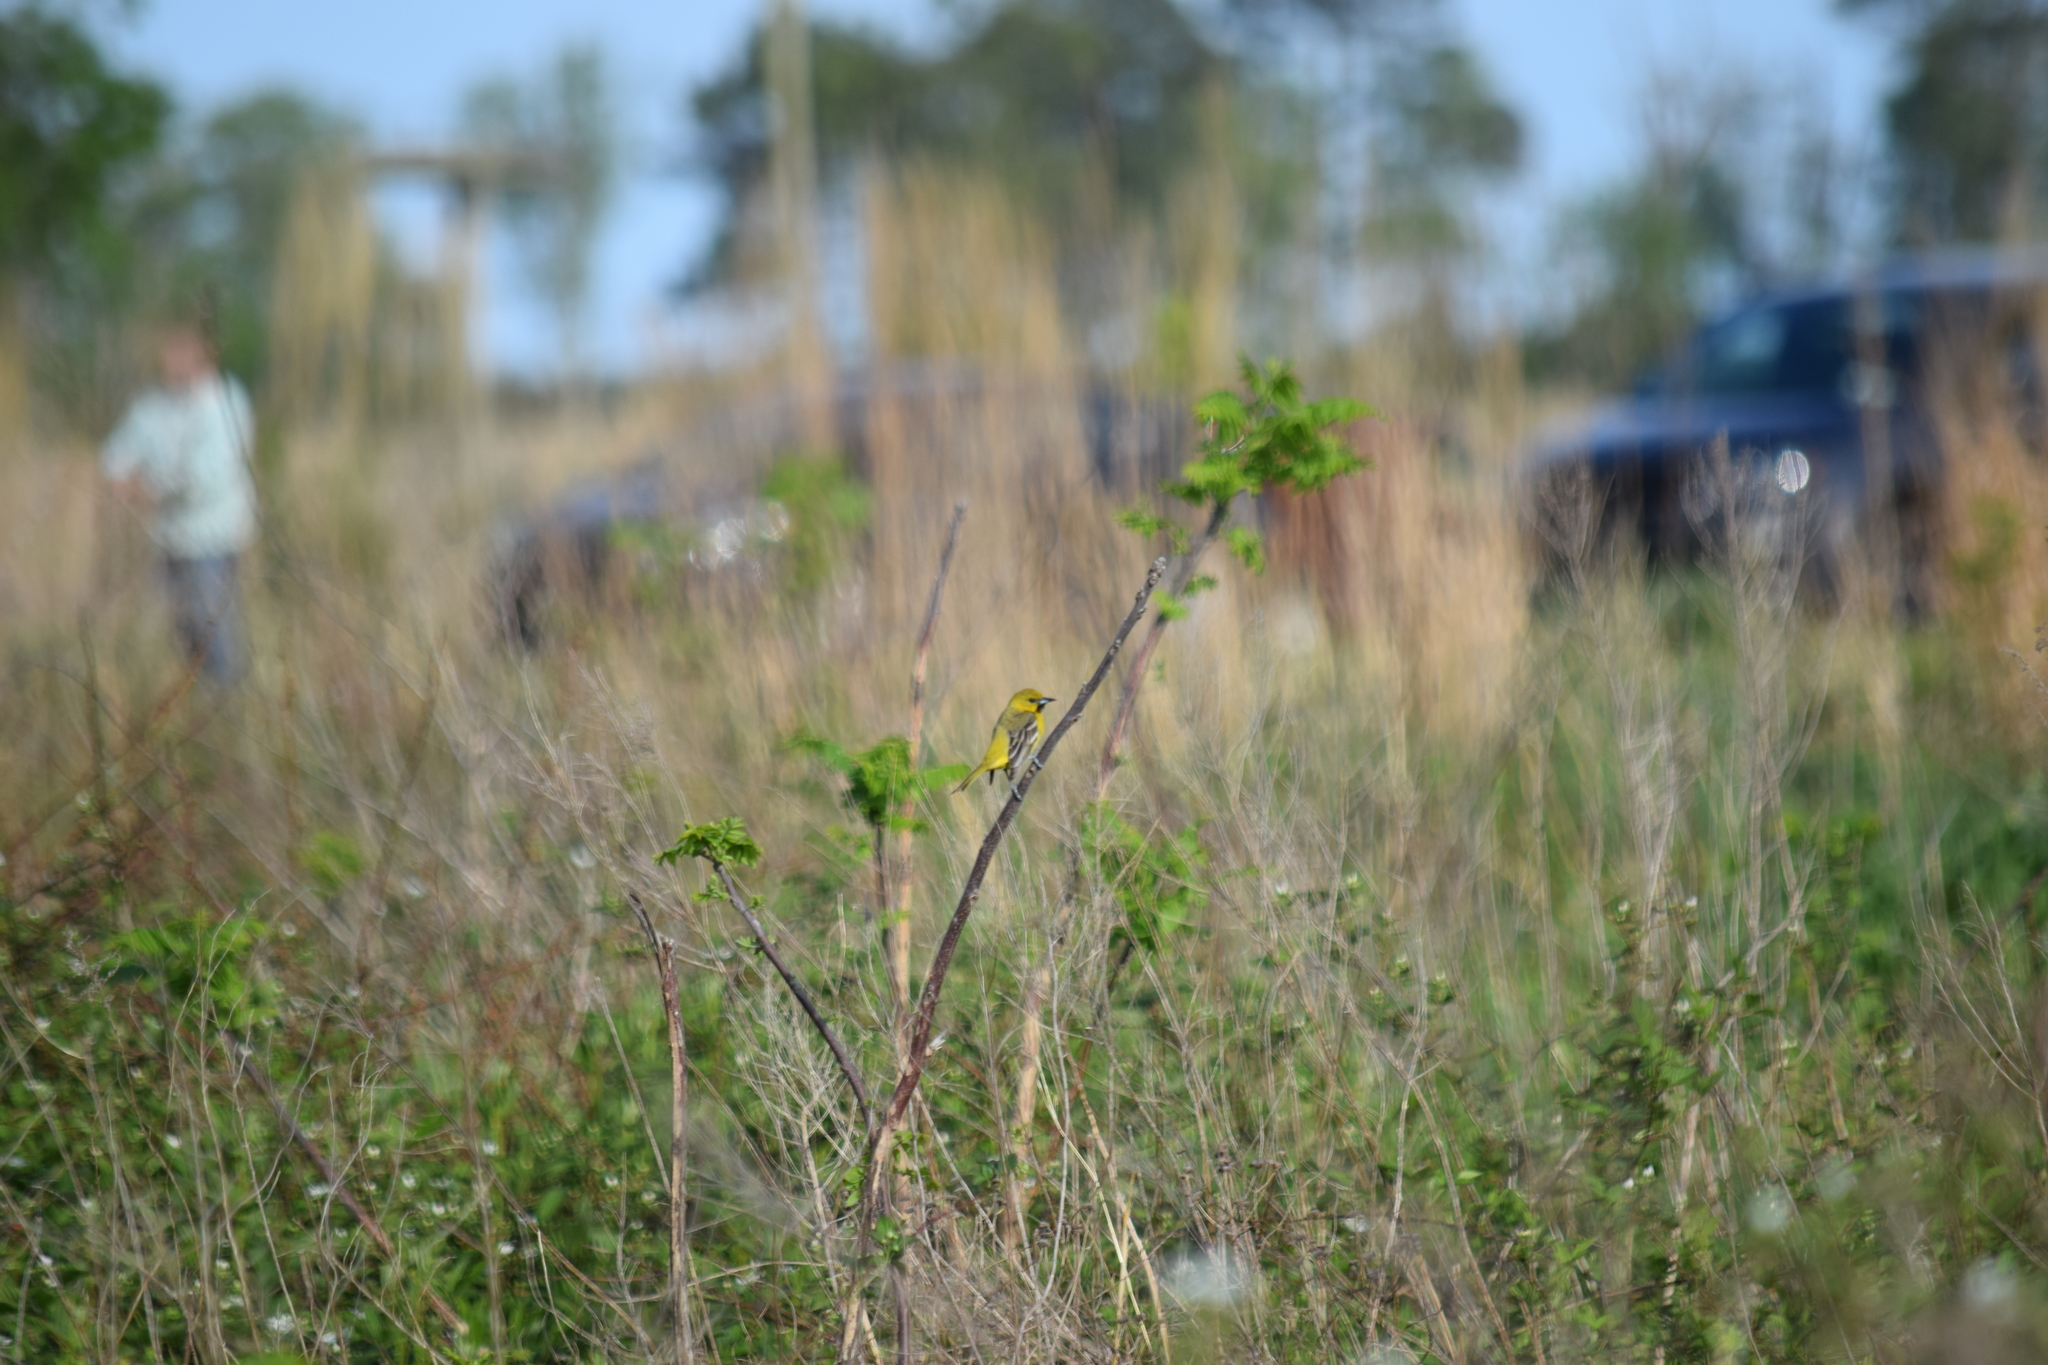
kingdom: Animalia
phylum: Chordata
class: Aves
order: Passeriformes
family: Icteridae
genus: Icterus
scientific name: Icterus spurius
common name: Orchard oriole
